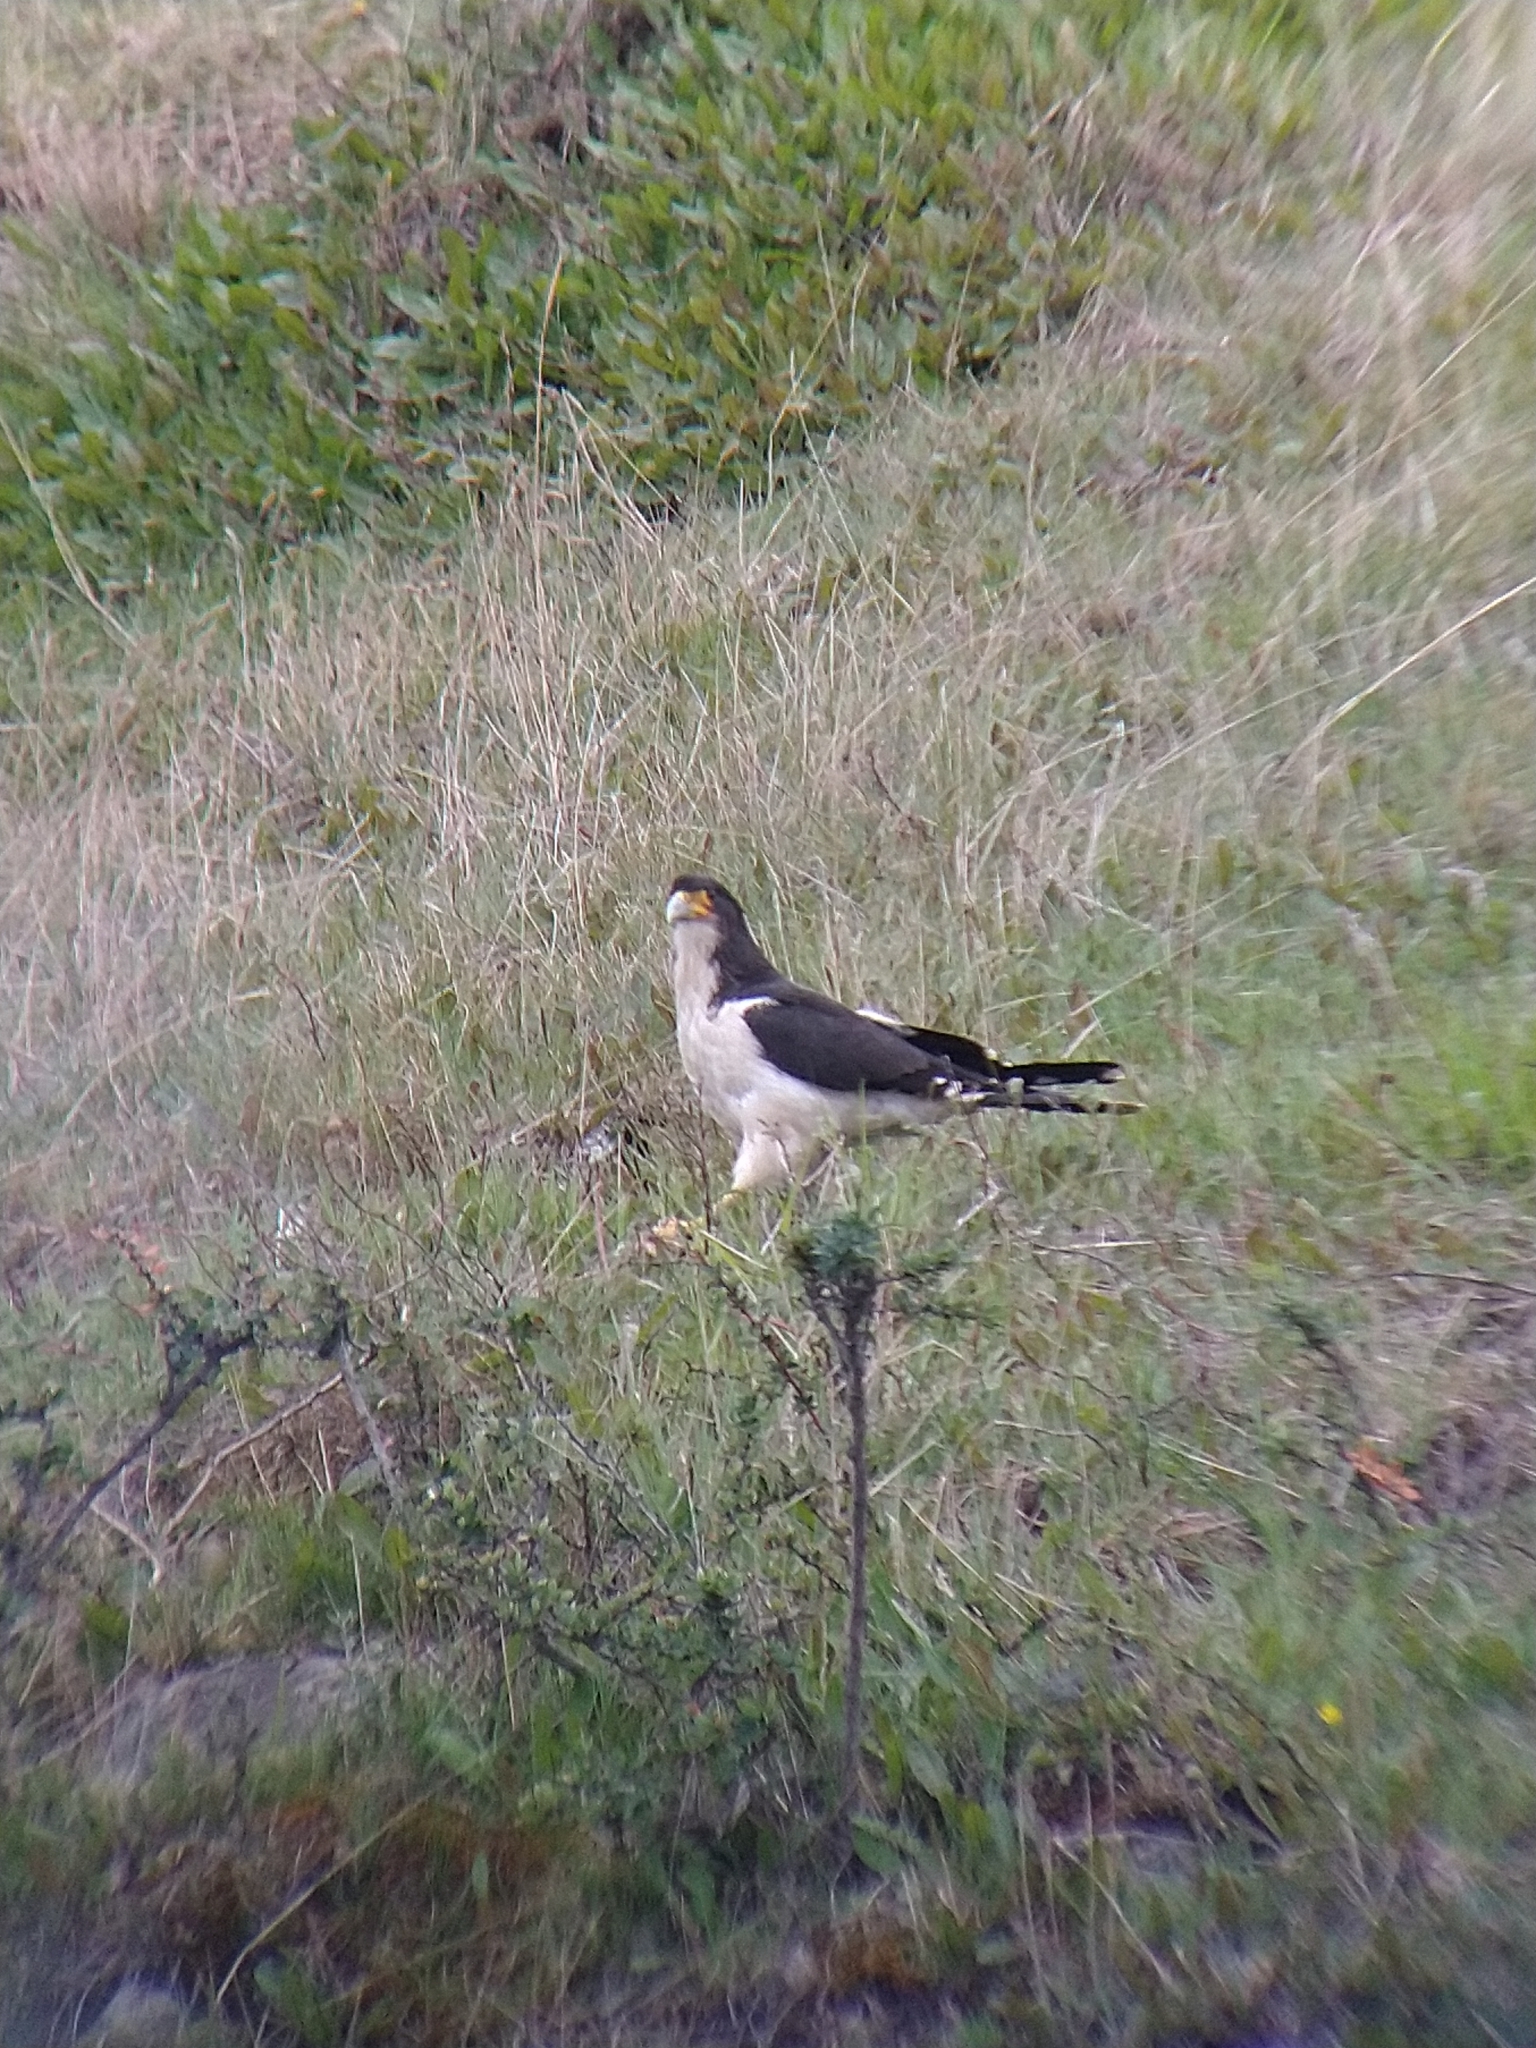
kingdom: Animalia
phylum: Chordata
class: Aves
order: Falconiformes
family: Falconidae
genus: Daptrius
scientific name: Daptrius
